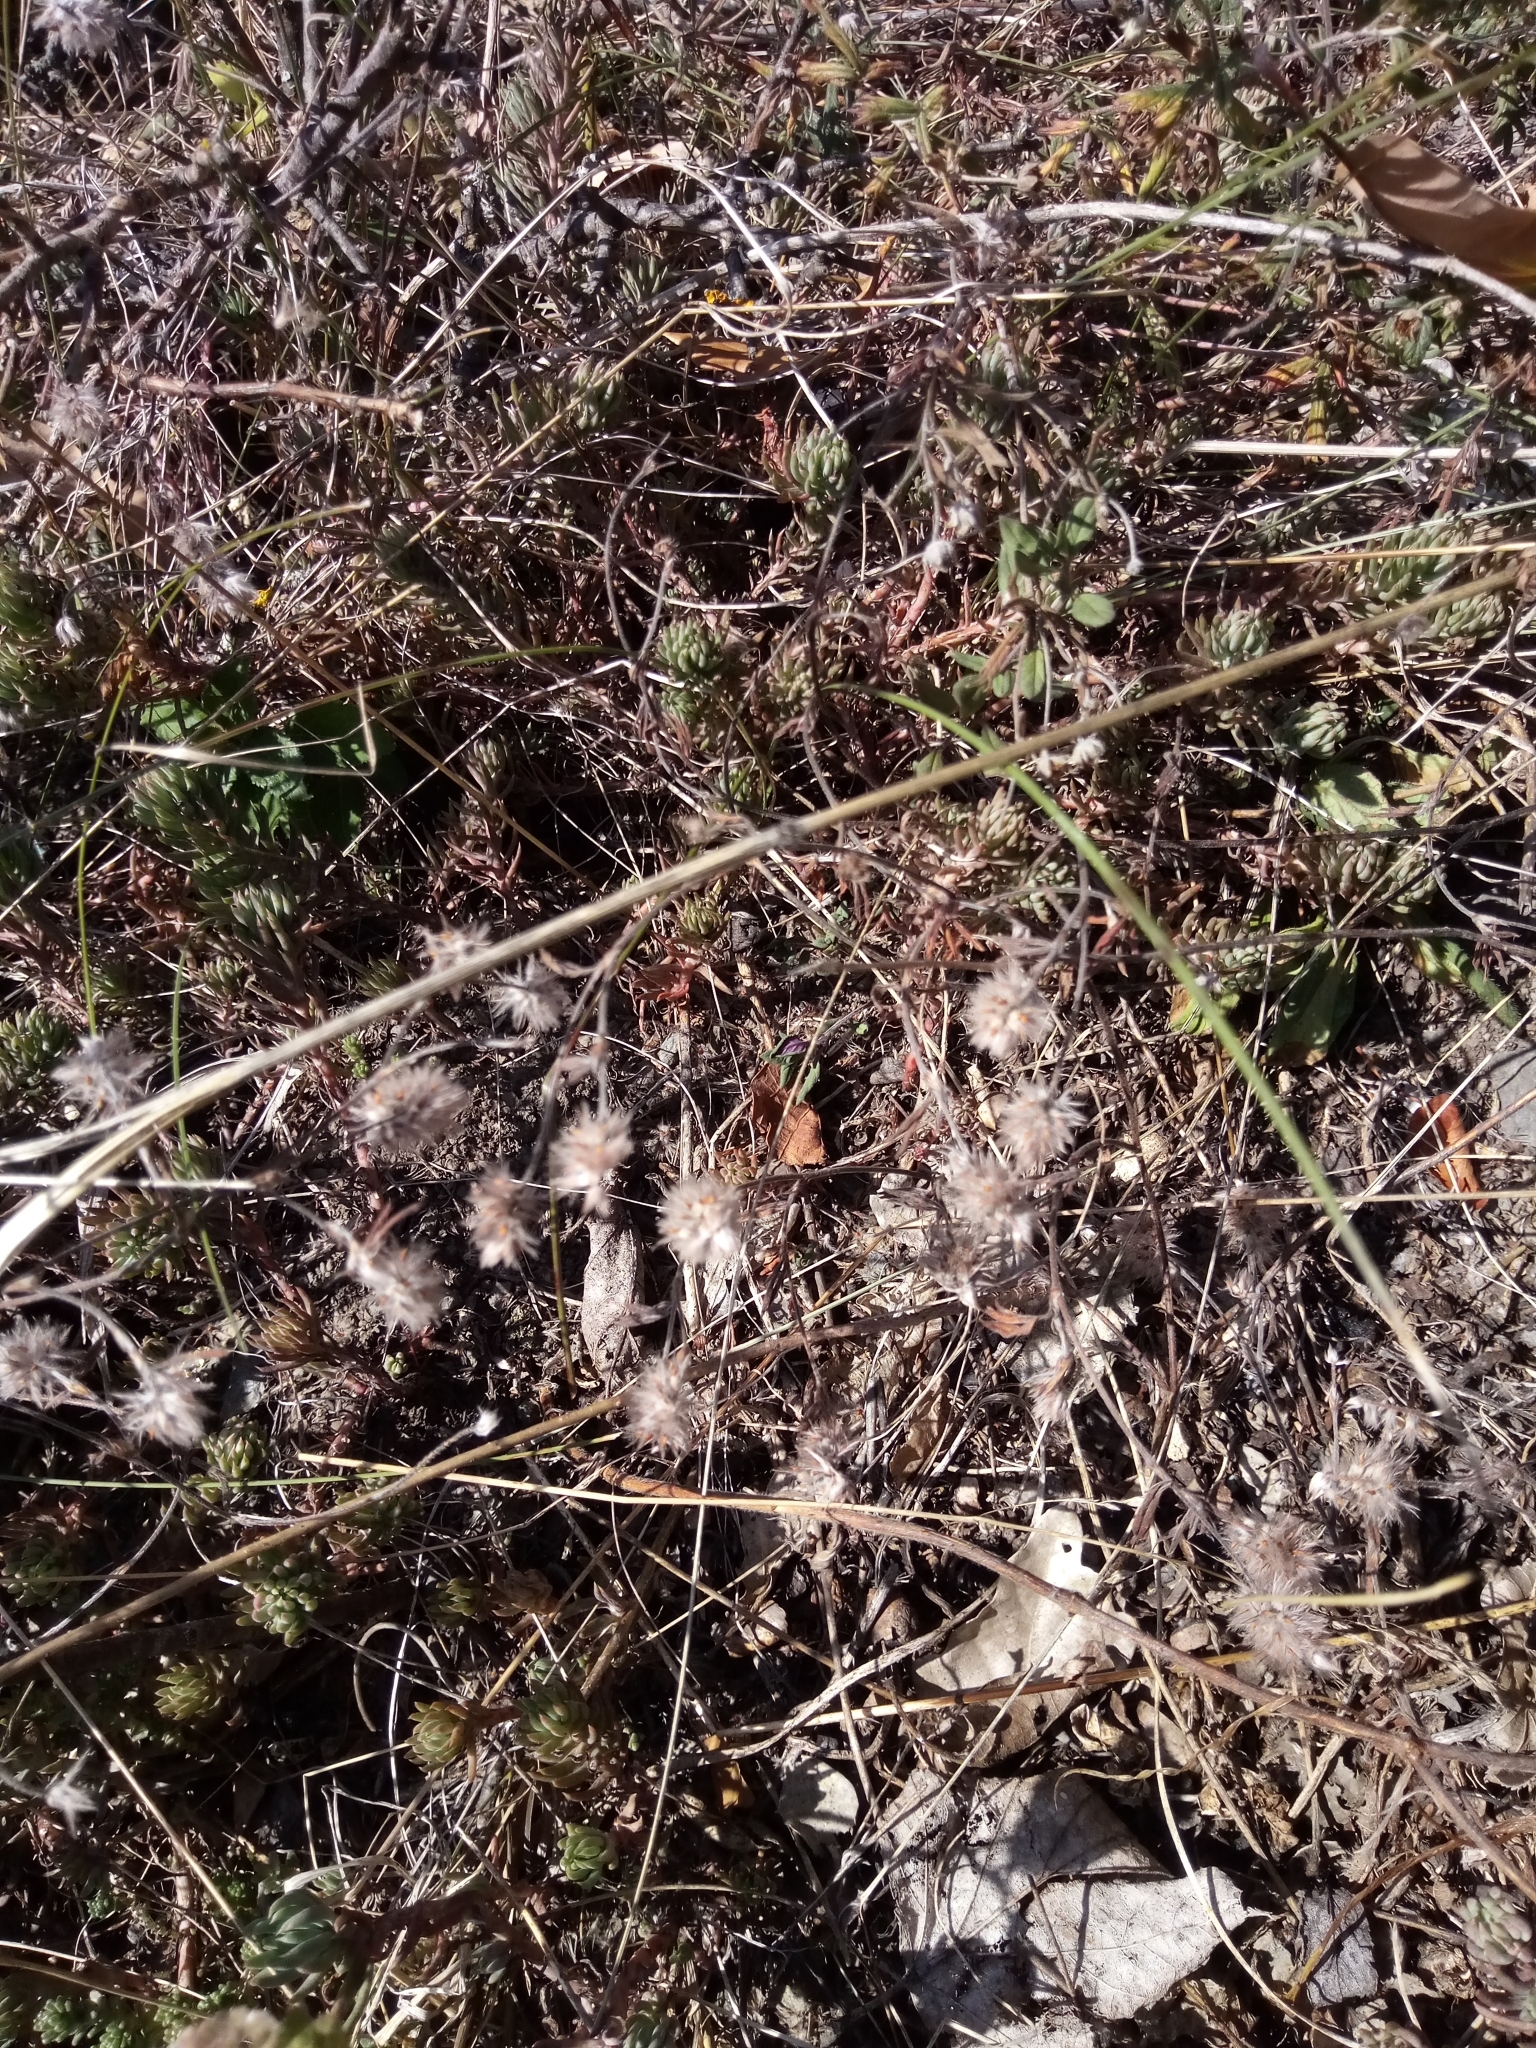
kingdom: Plantae
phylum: Tracheophyta
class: Magnoliopsida
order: Fabales
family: Fabaceae
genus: Trifolium
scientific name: Trifolium arvense
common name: Hare's-foot clover
